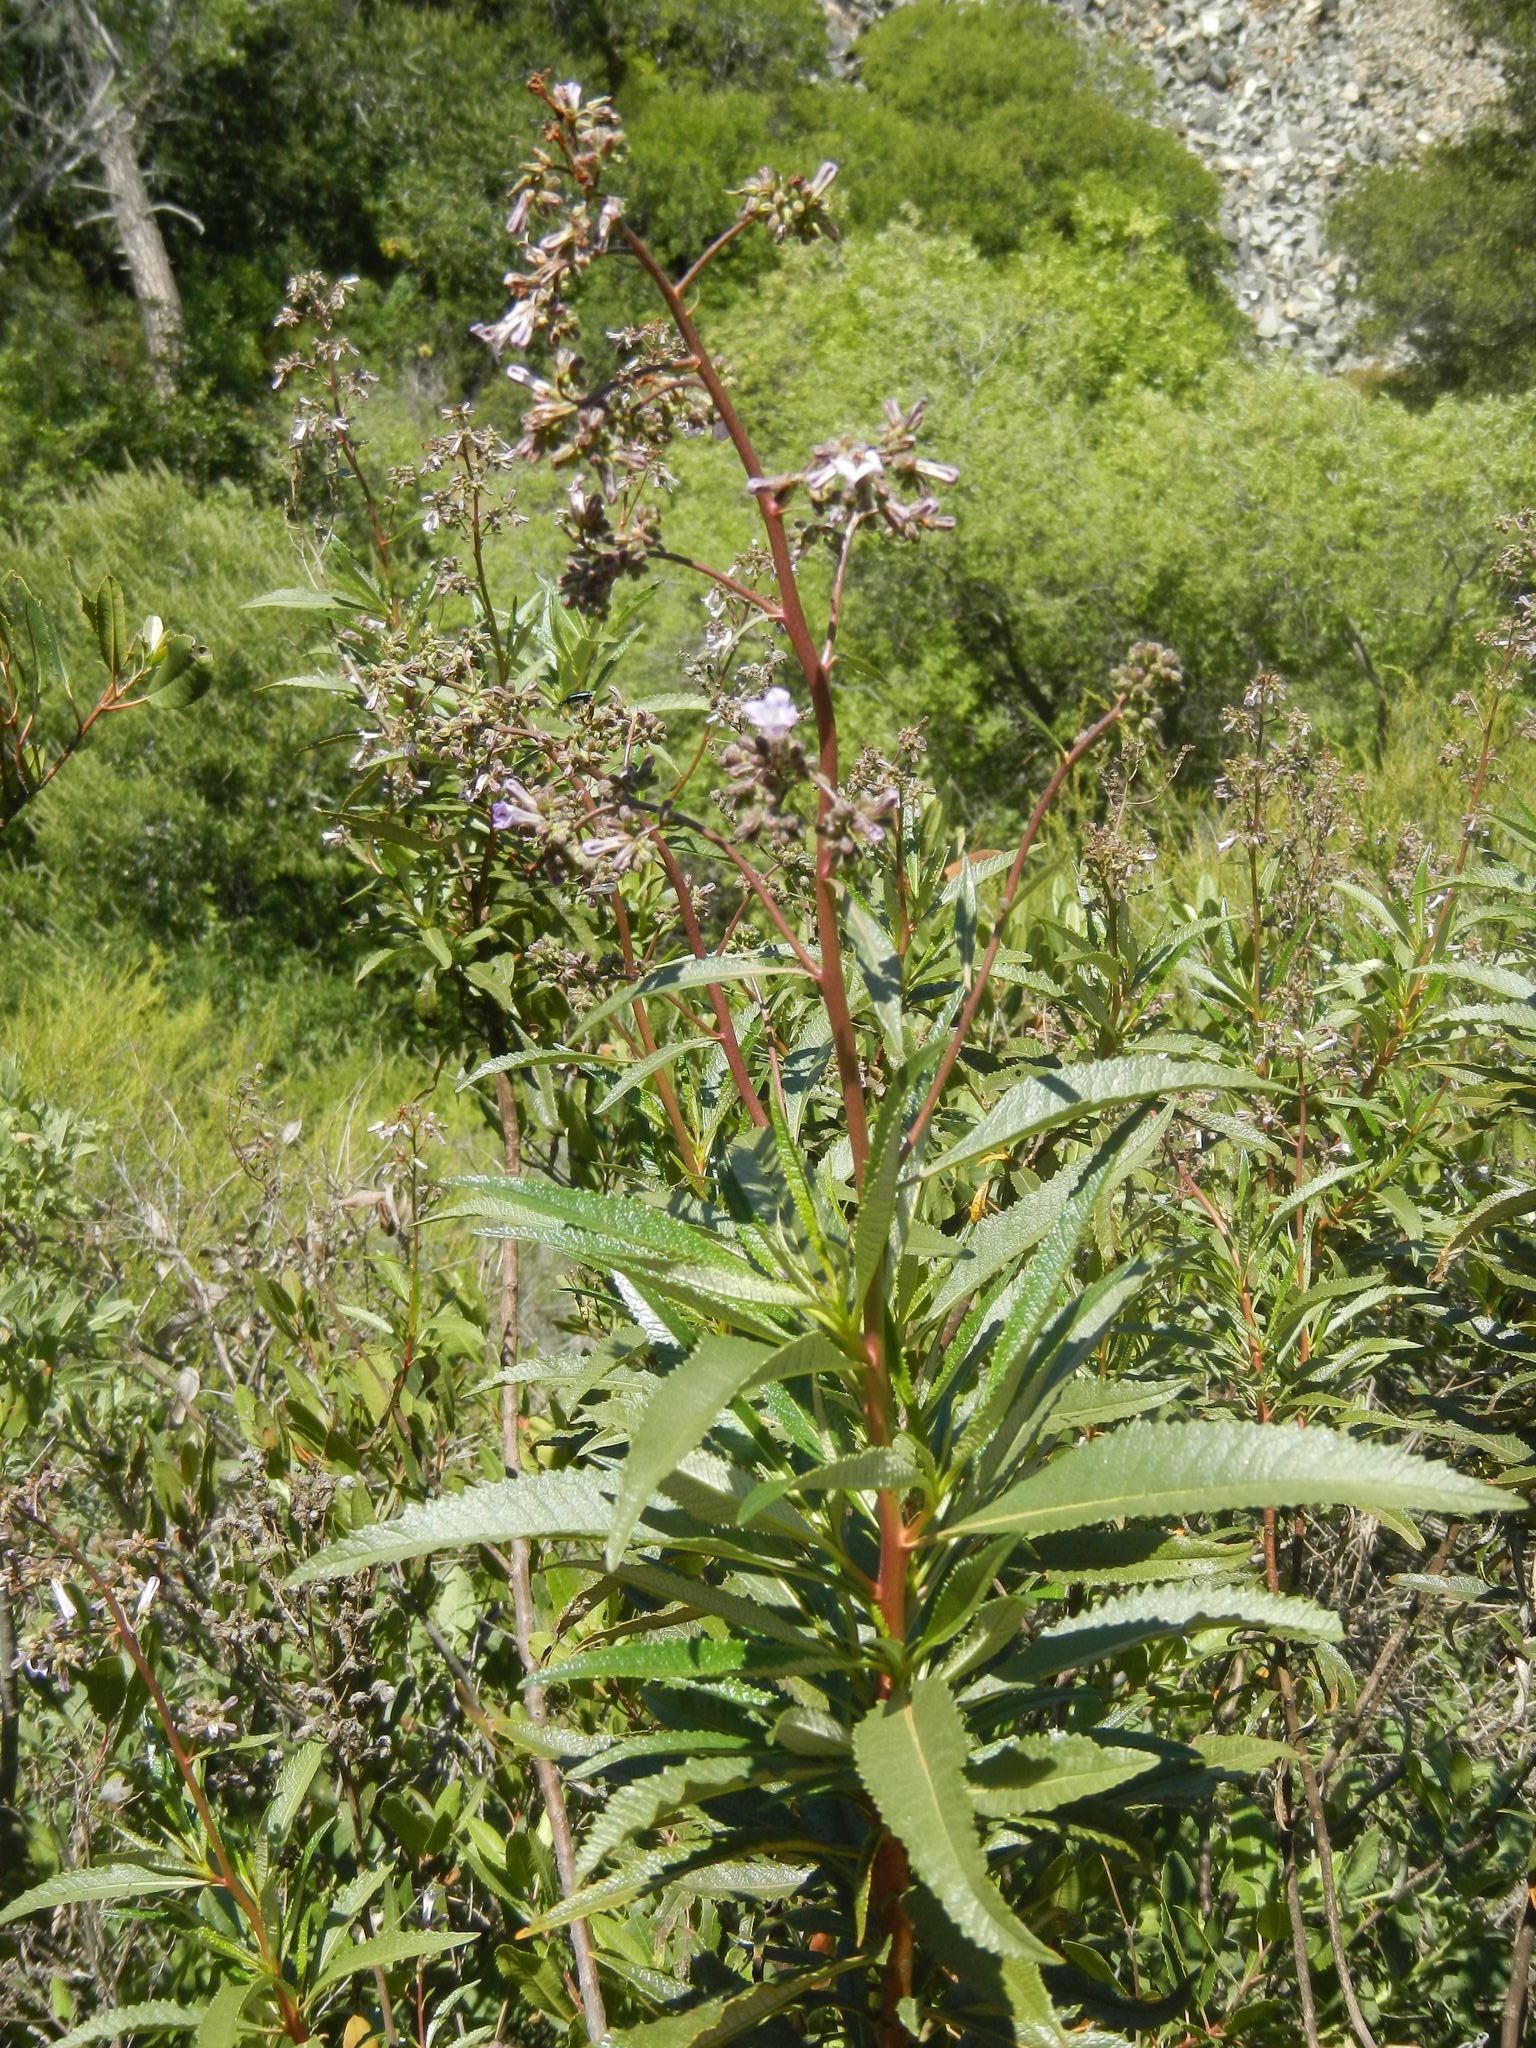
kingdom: Plantae
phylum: Tracheophyta
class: Magnoliopsida
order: Boraginales
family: Namaceae
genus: Eriodictyon
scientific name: Eriodictyon californicum
